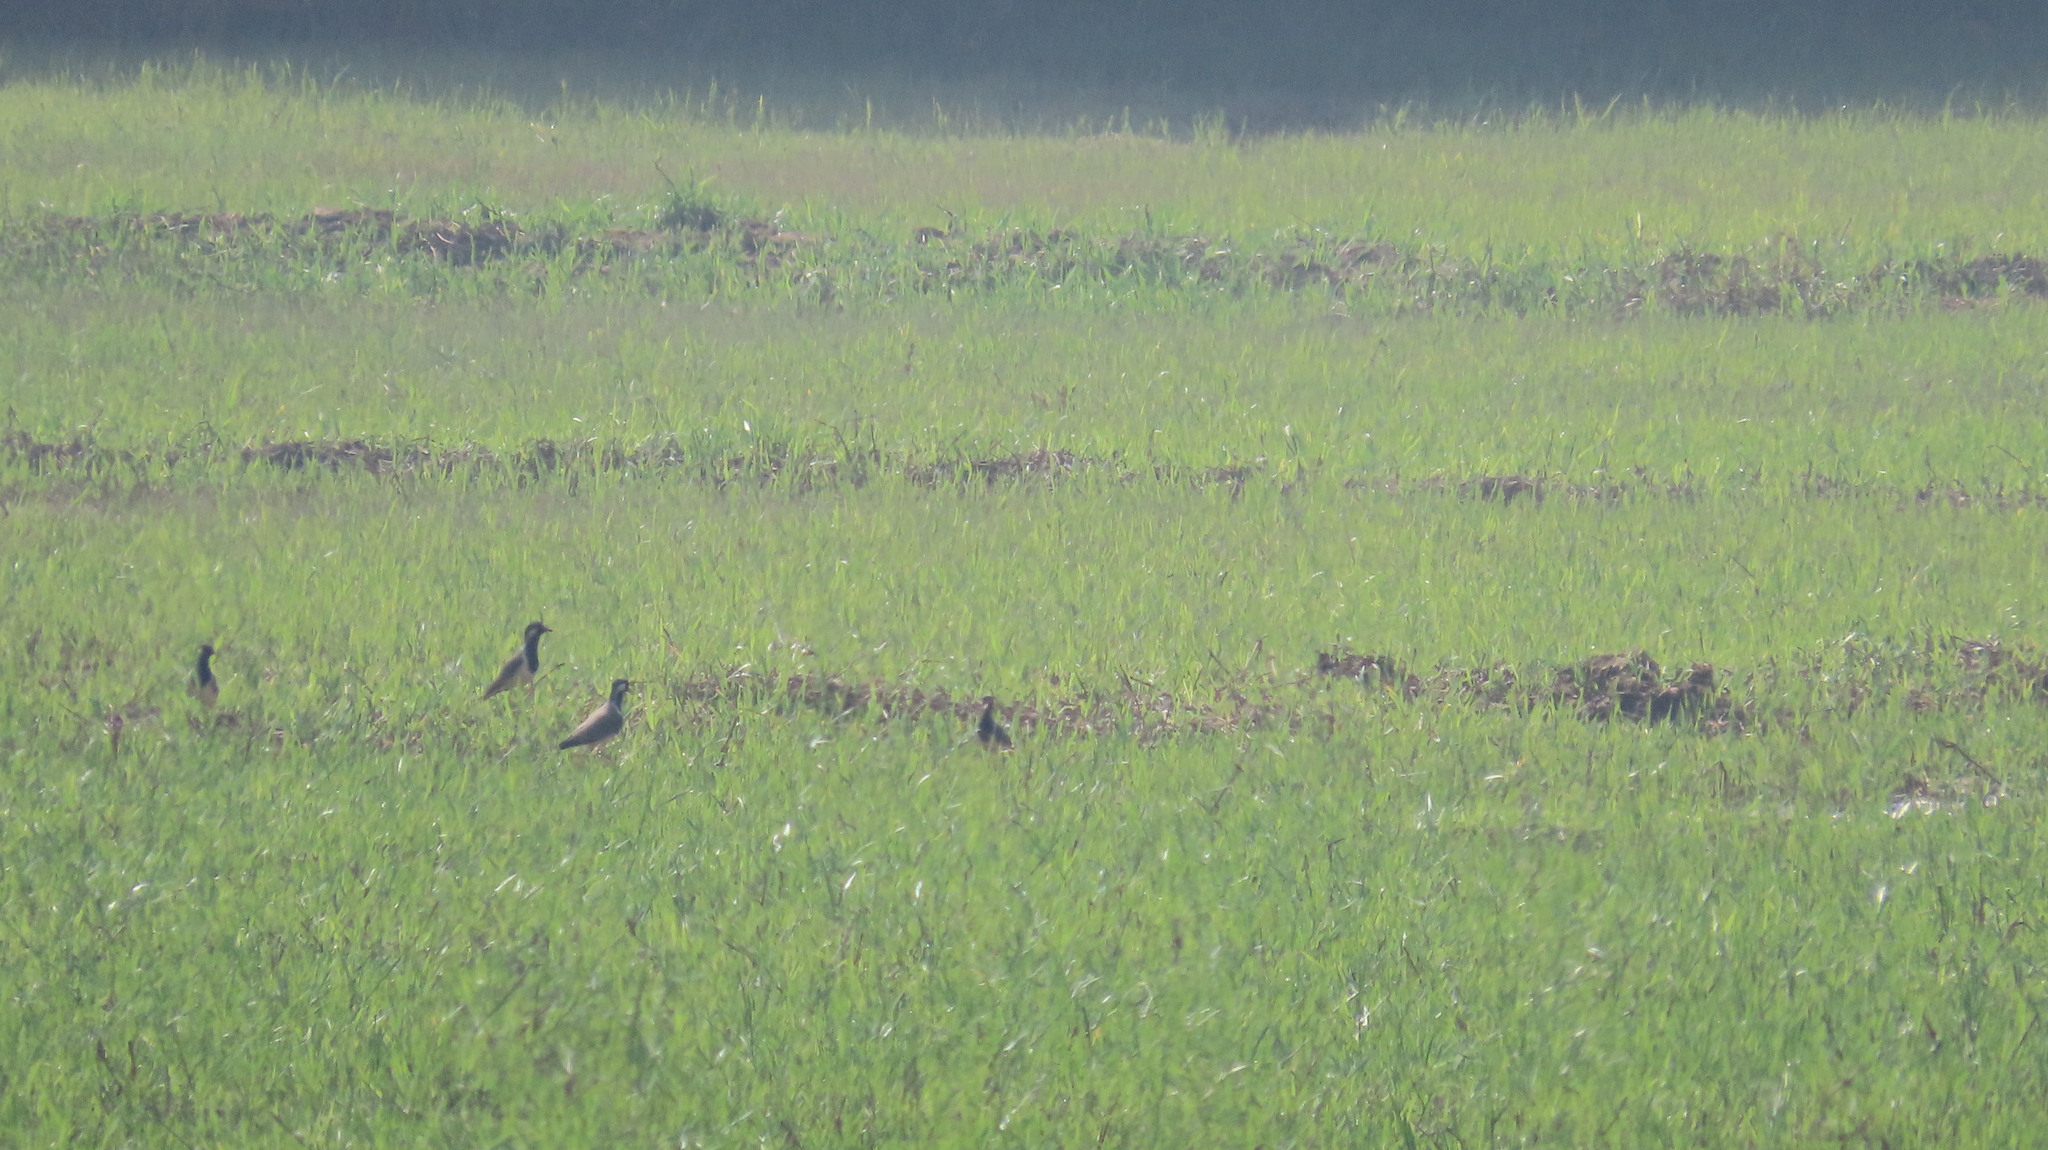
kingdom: Animalia
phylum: Chordata
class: Aves
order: Charadriiformes
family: Charadriidae
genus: Vanellus
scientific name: Vanellus indicus
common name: Red-wattled lapwing
